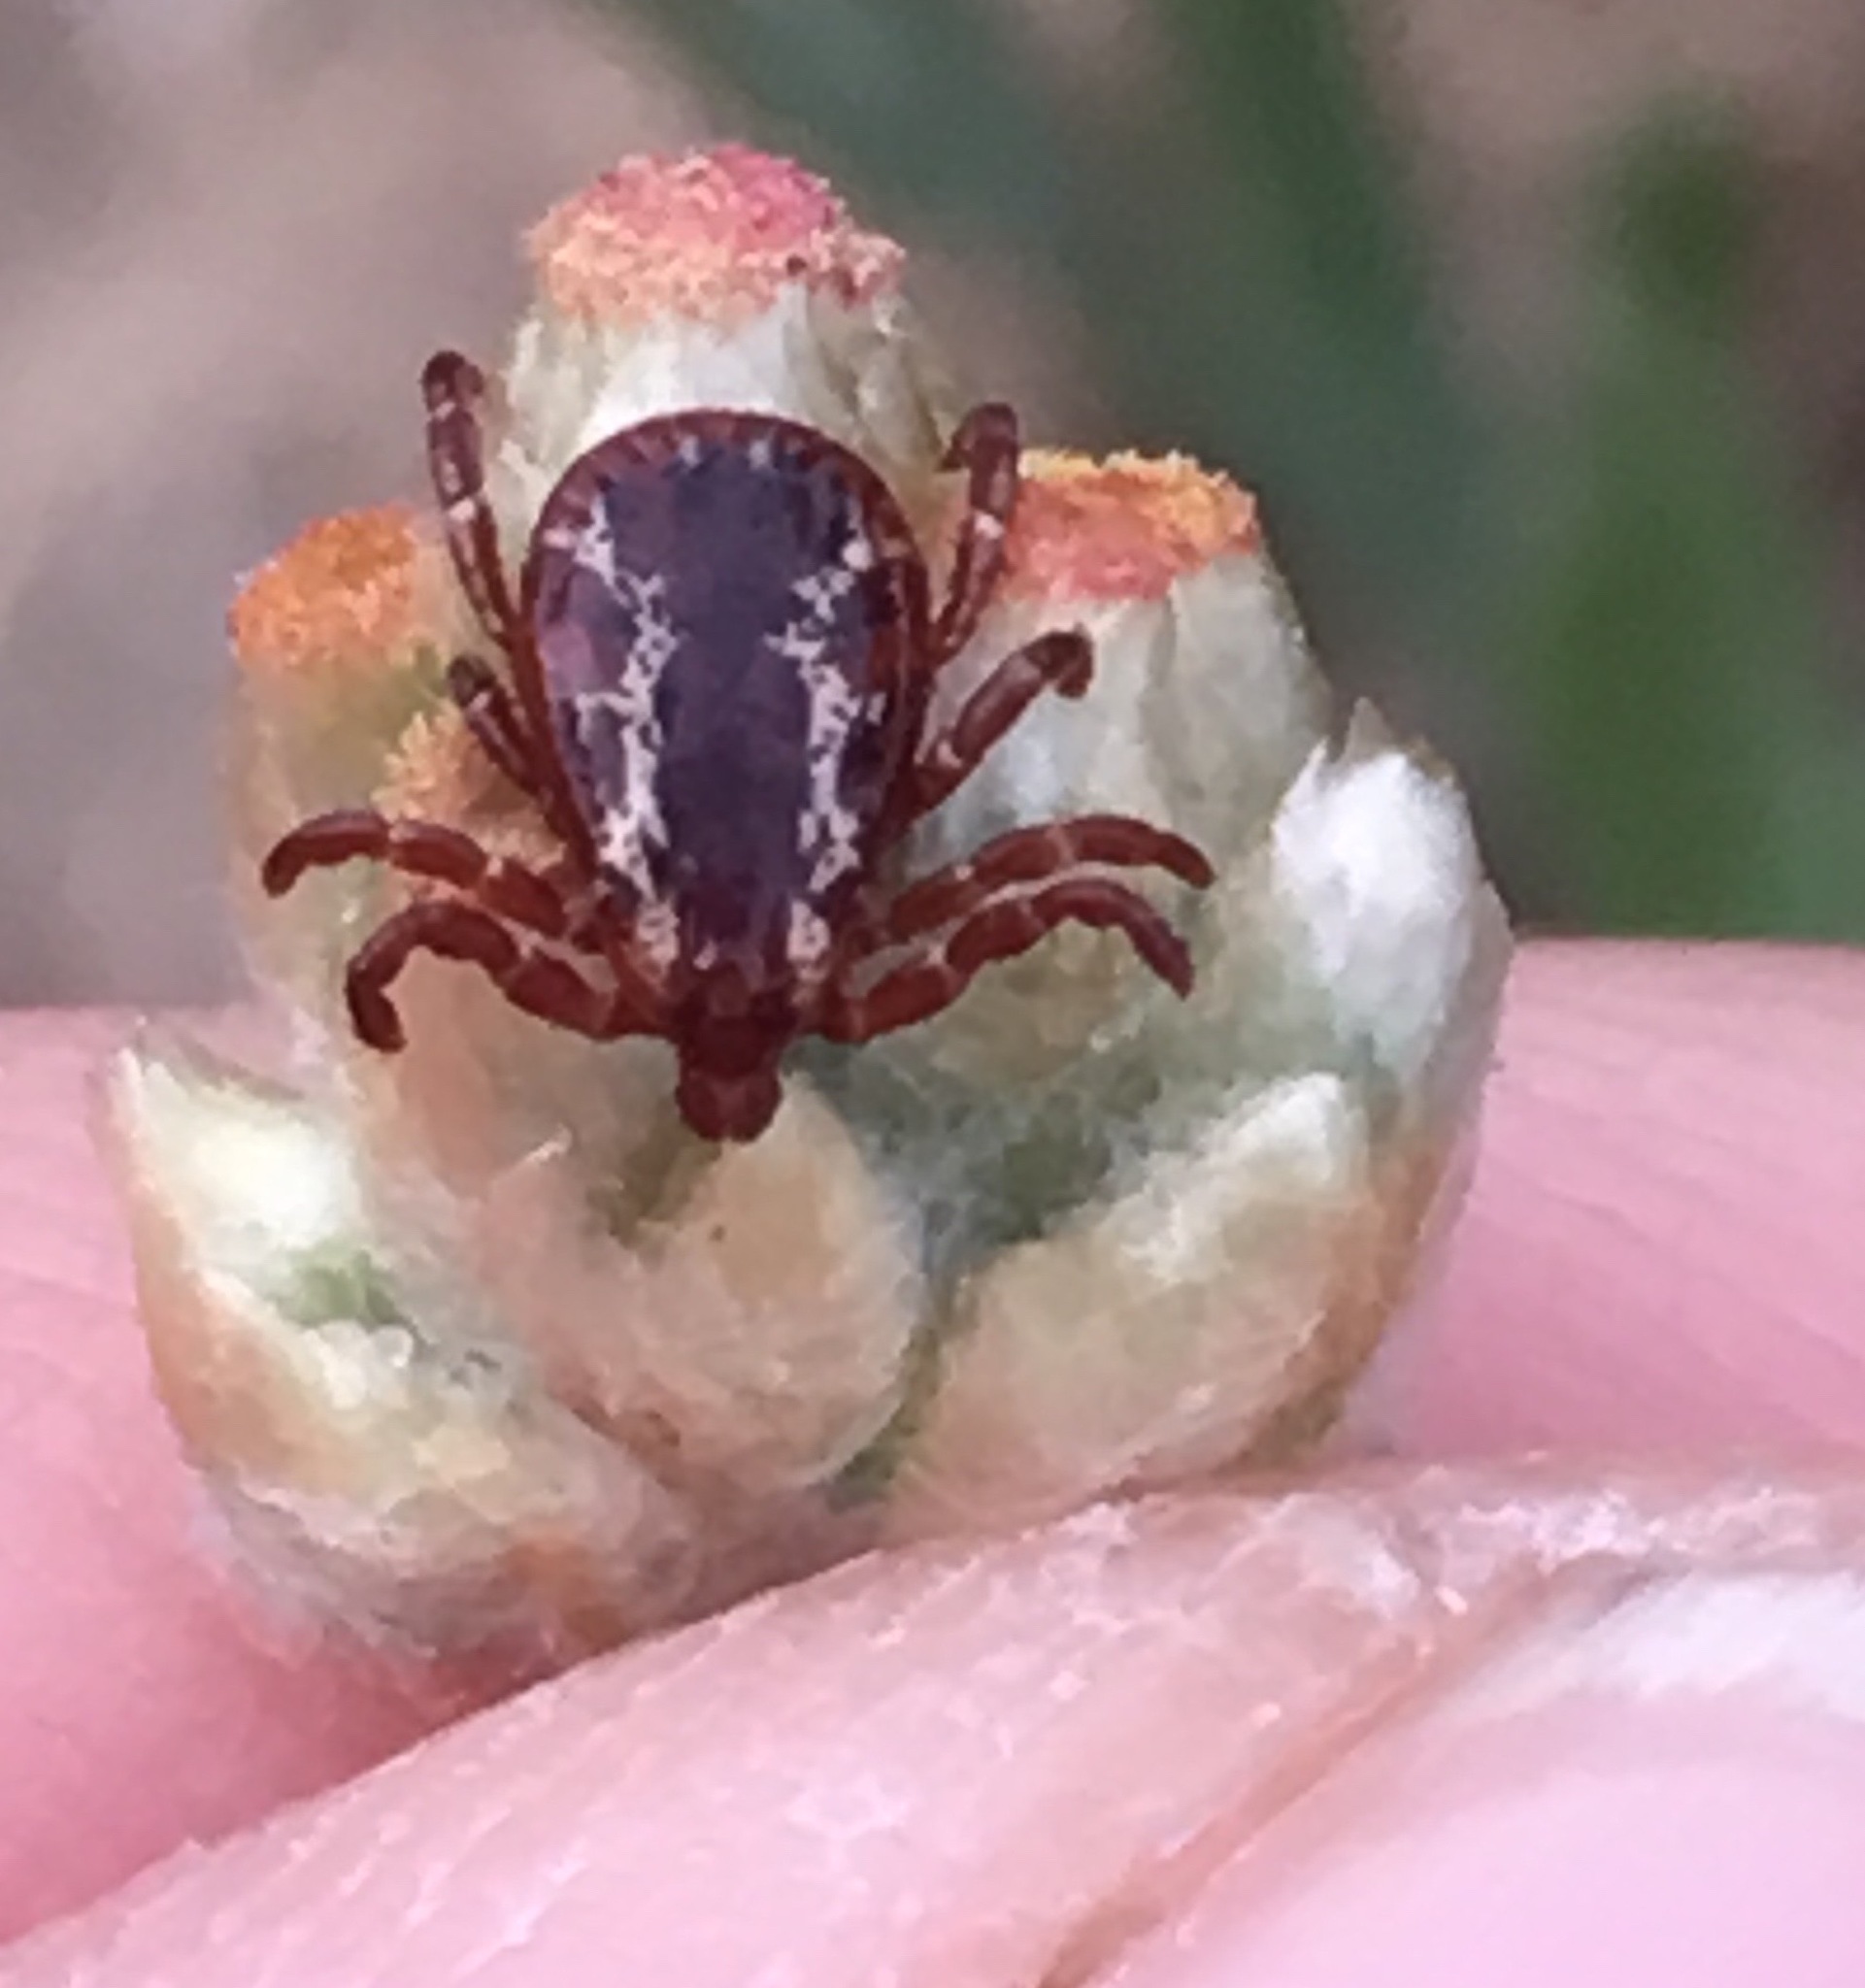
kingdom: Animalia
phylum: Arthropoda
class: Arachnida
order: Ixodida
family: Ixodidae
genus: Dermacentor
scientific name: Dermacentor variabilis
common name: American dog tick
